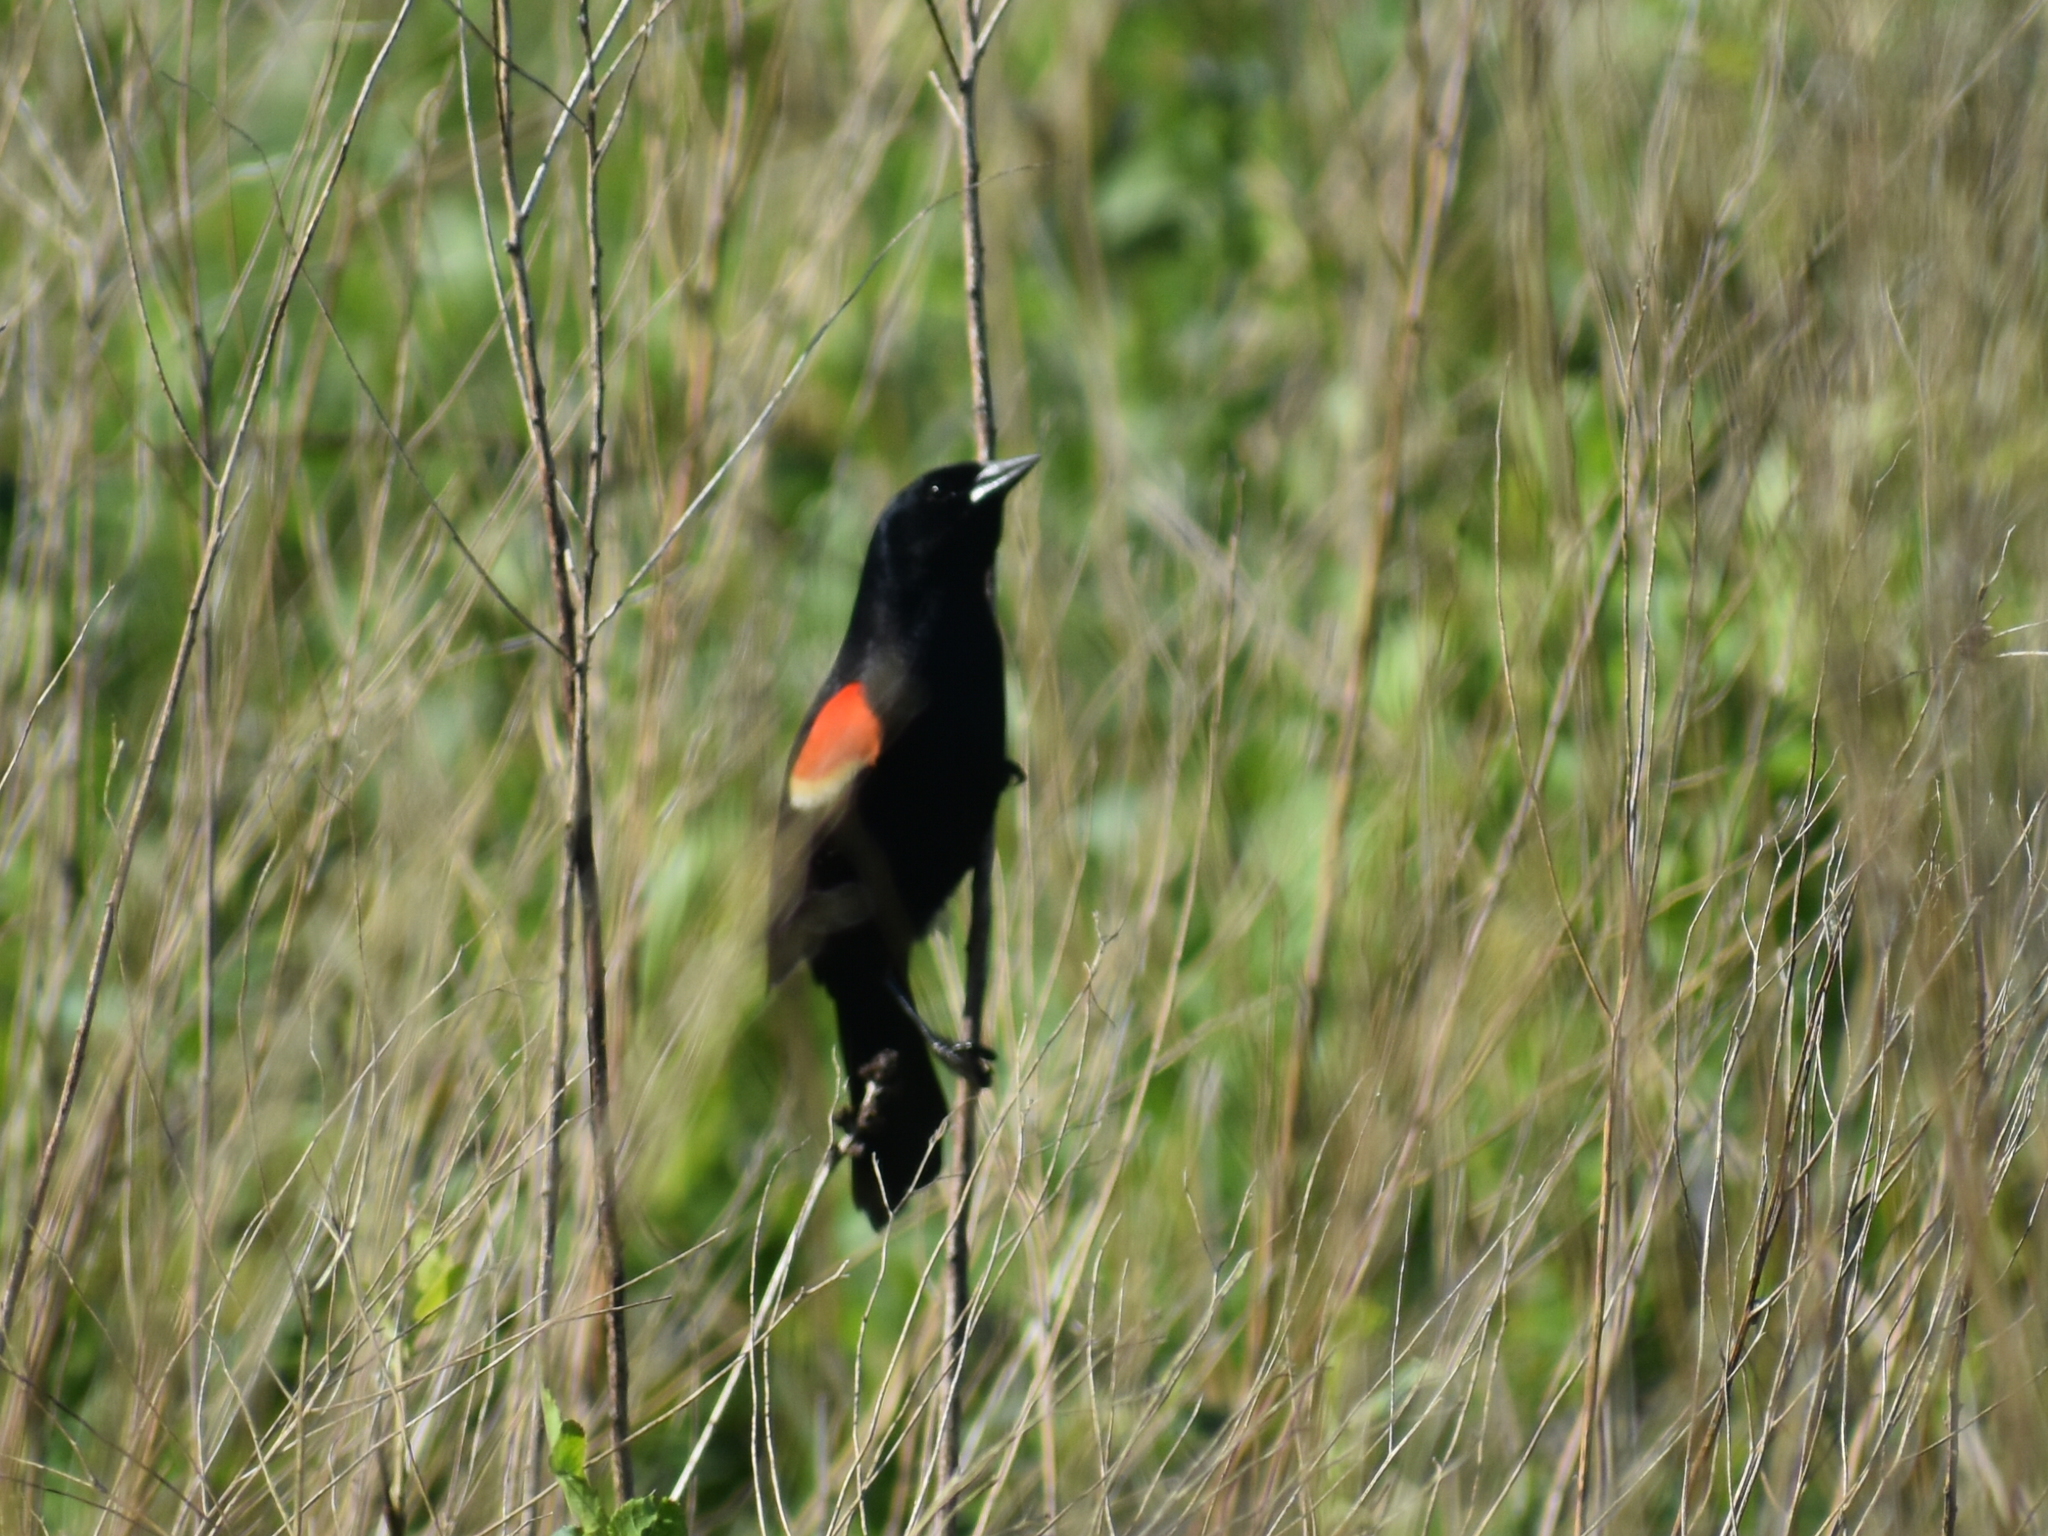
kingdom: Animalia
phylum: Chordata
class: Aves
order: Passeriformes
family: Icteridae
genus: Agelaius
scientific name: Agelaius phoeniceus
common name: Red-winged blackbird
